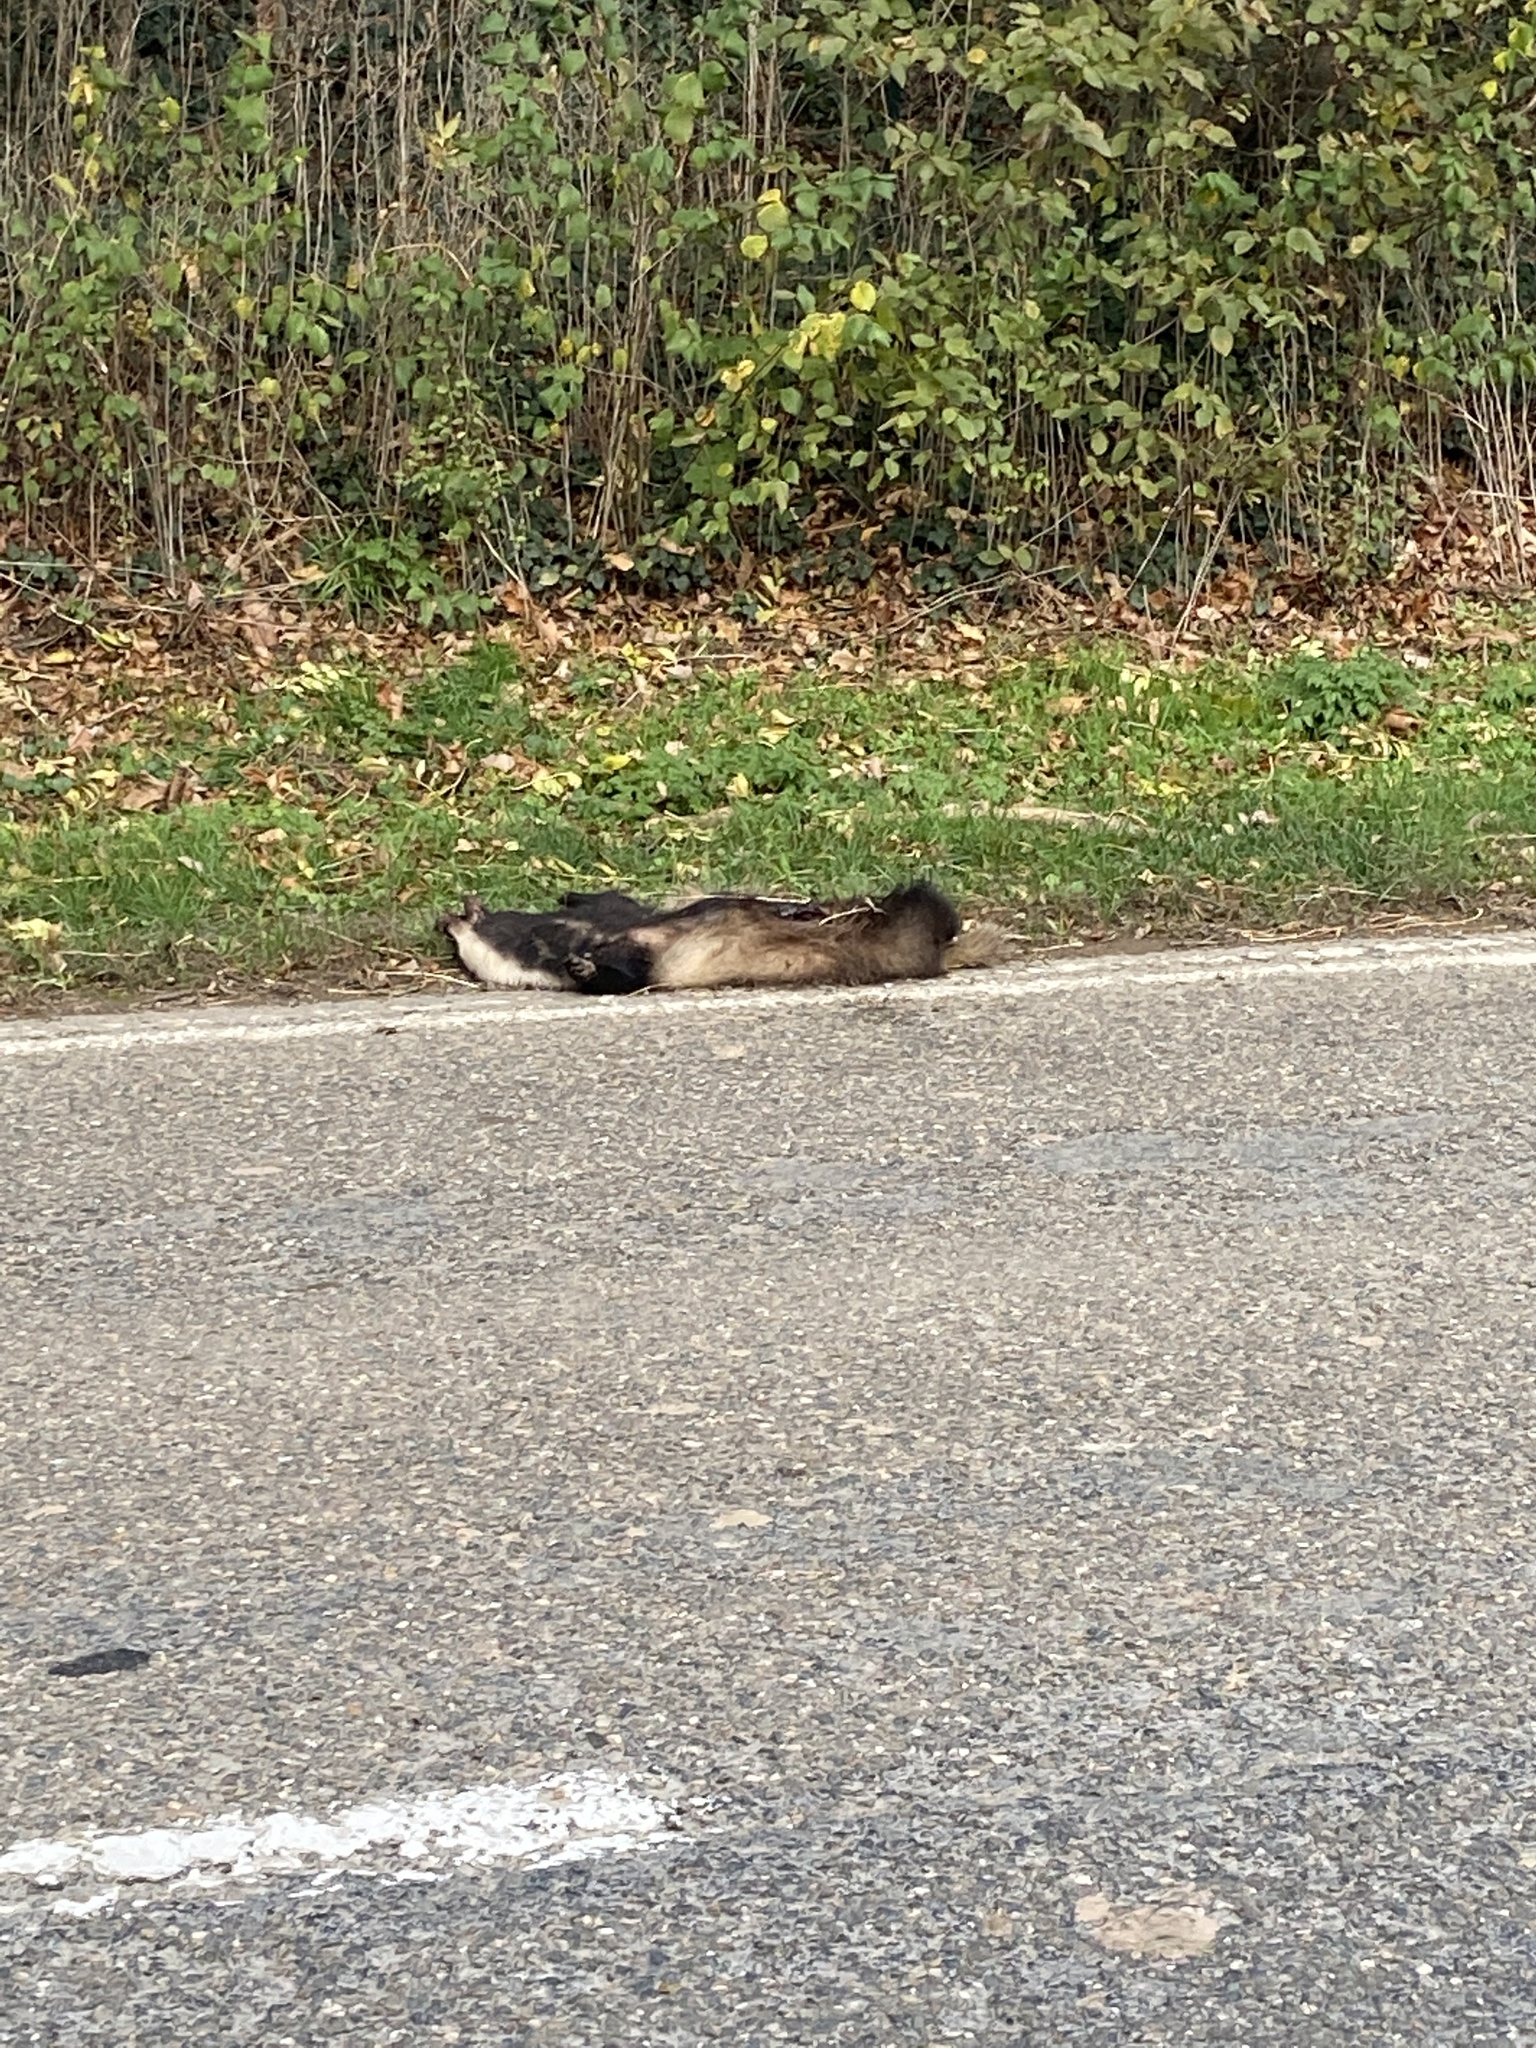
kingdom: Animalia
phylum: Chordata
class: Mammalia
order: Carnivora
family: Mustelidae
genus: Meles
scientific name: Meles meles
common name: Eurasian badger
